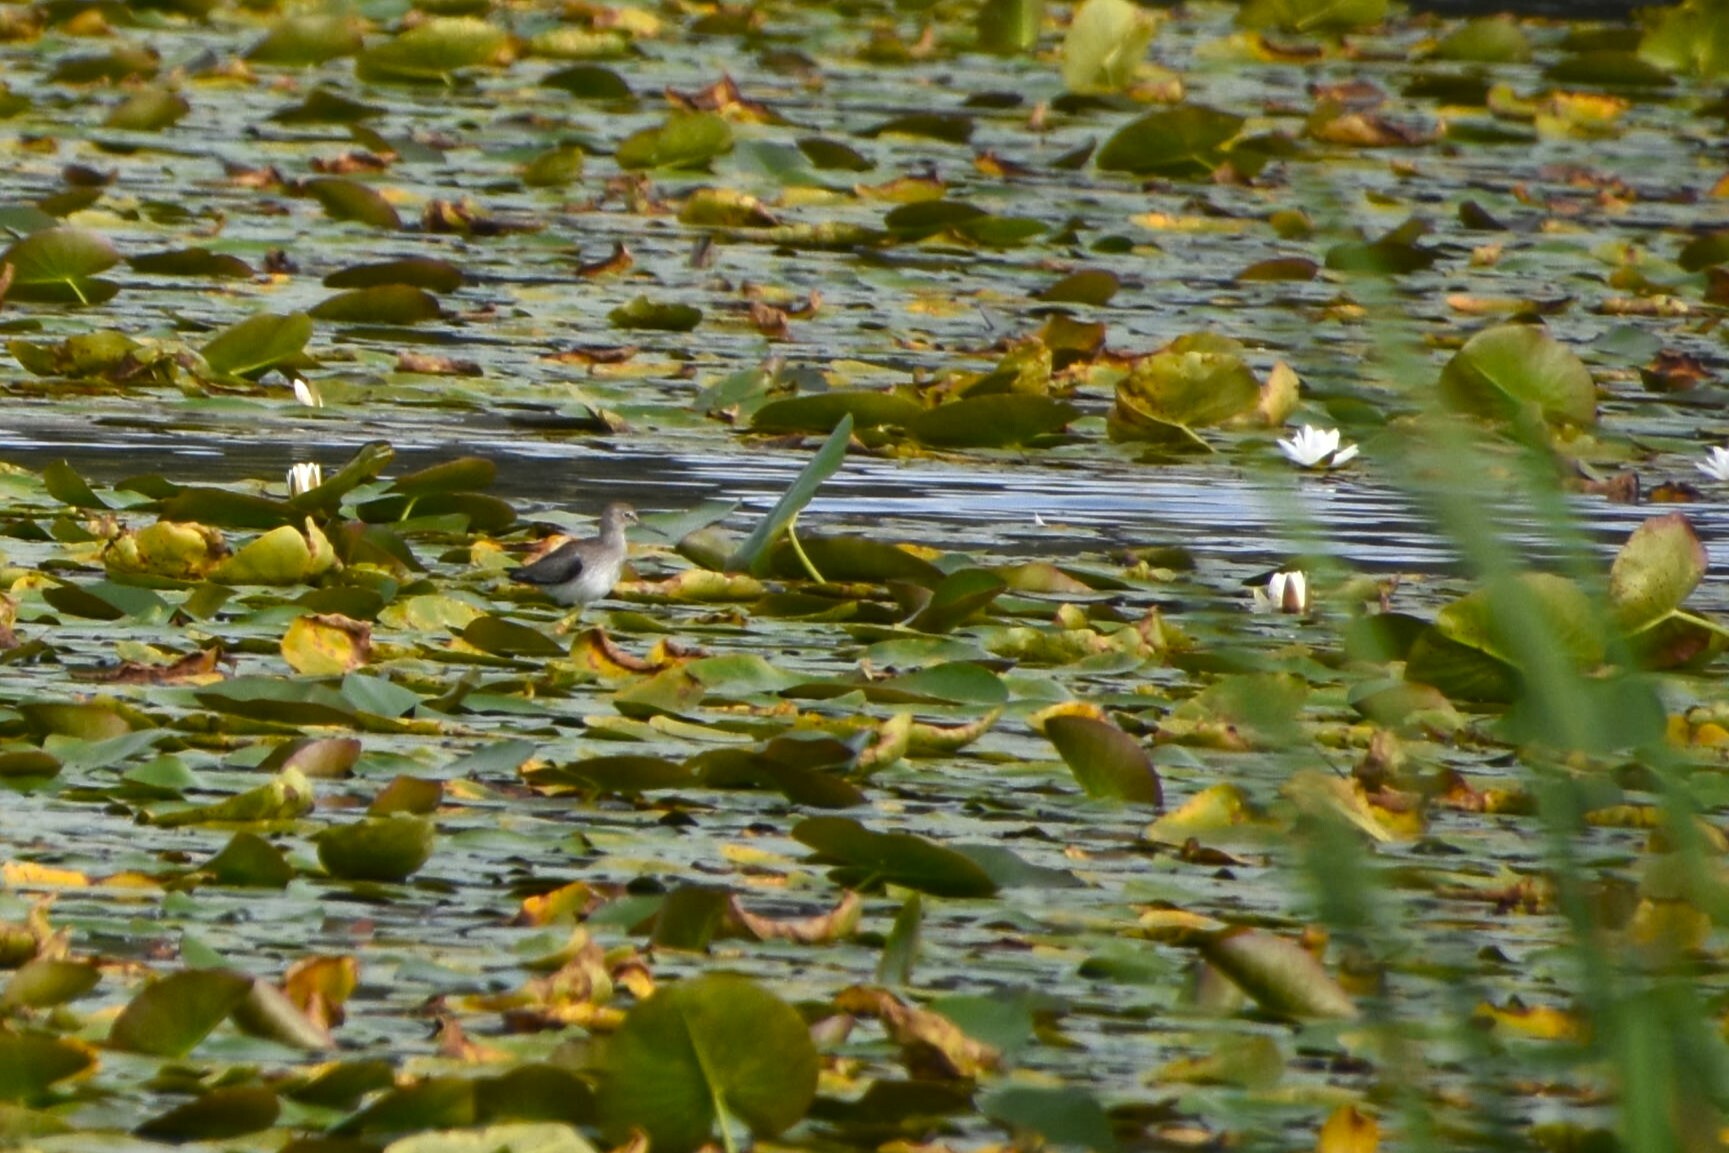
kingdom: Animalia
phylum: Chordata
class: Aves
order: Charadriiformes
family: Scolopacidae
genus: Tringa
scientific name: Tringa ochropus
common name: Green sandpiper
